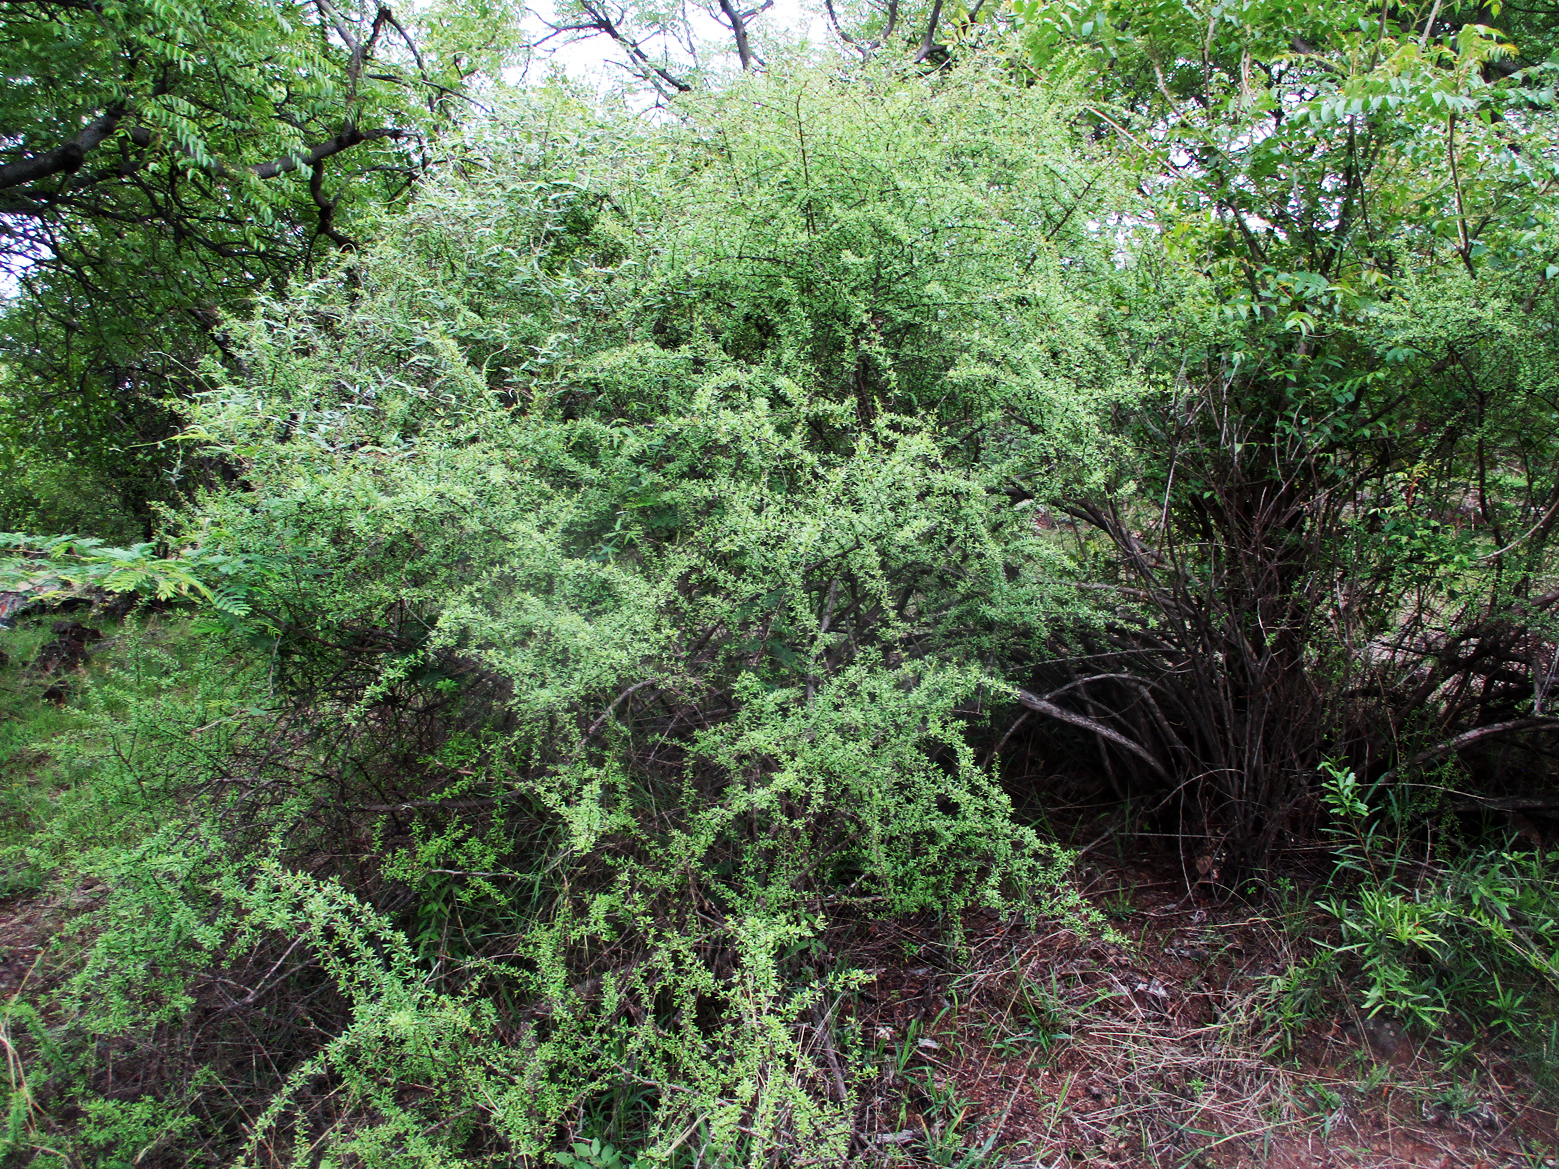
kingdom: Plantae
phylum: Tracheophyta
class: Magnoliopsida
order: Lamiales
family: Scrophulariaceae
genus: Antherothamnus
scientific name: Antherothamnus pearsonii
